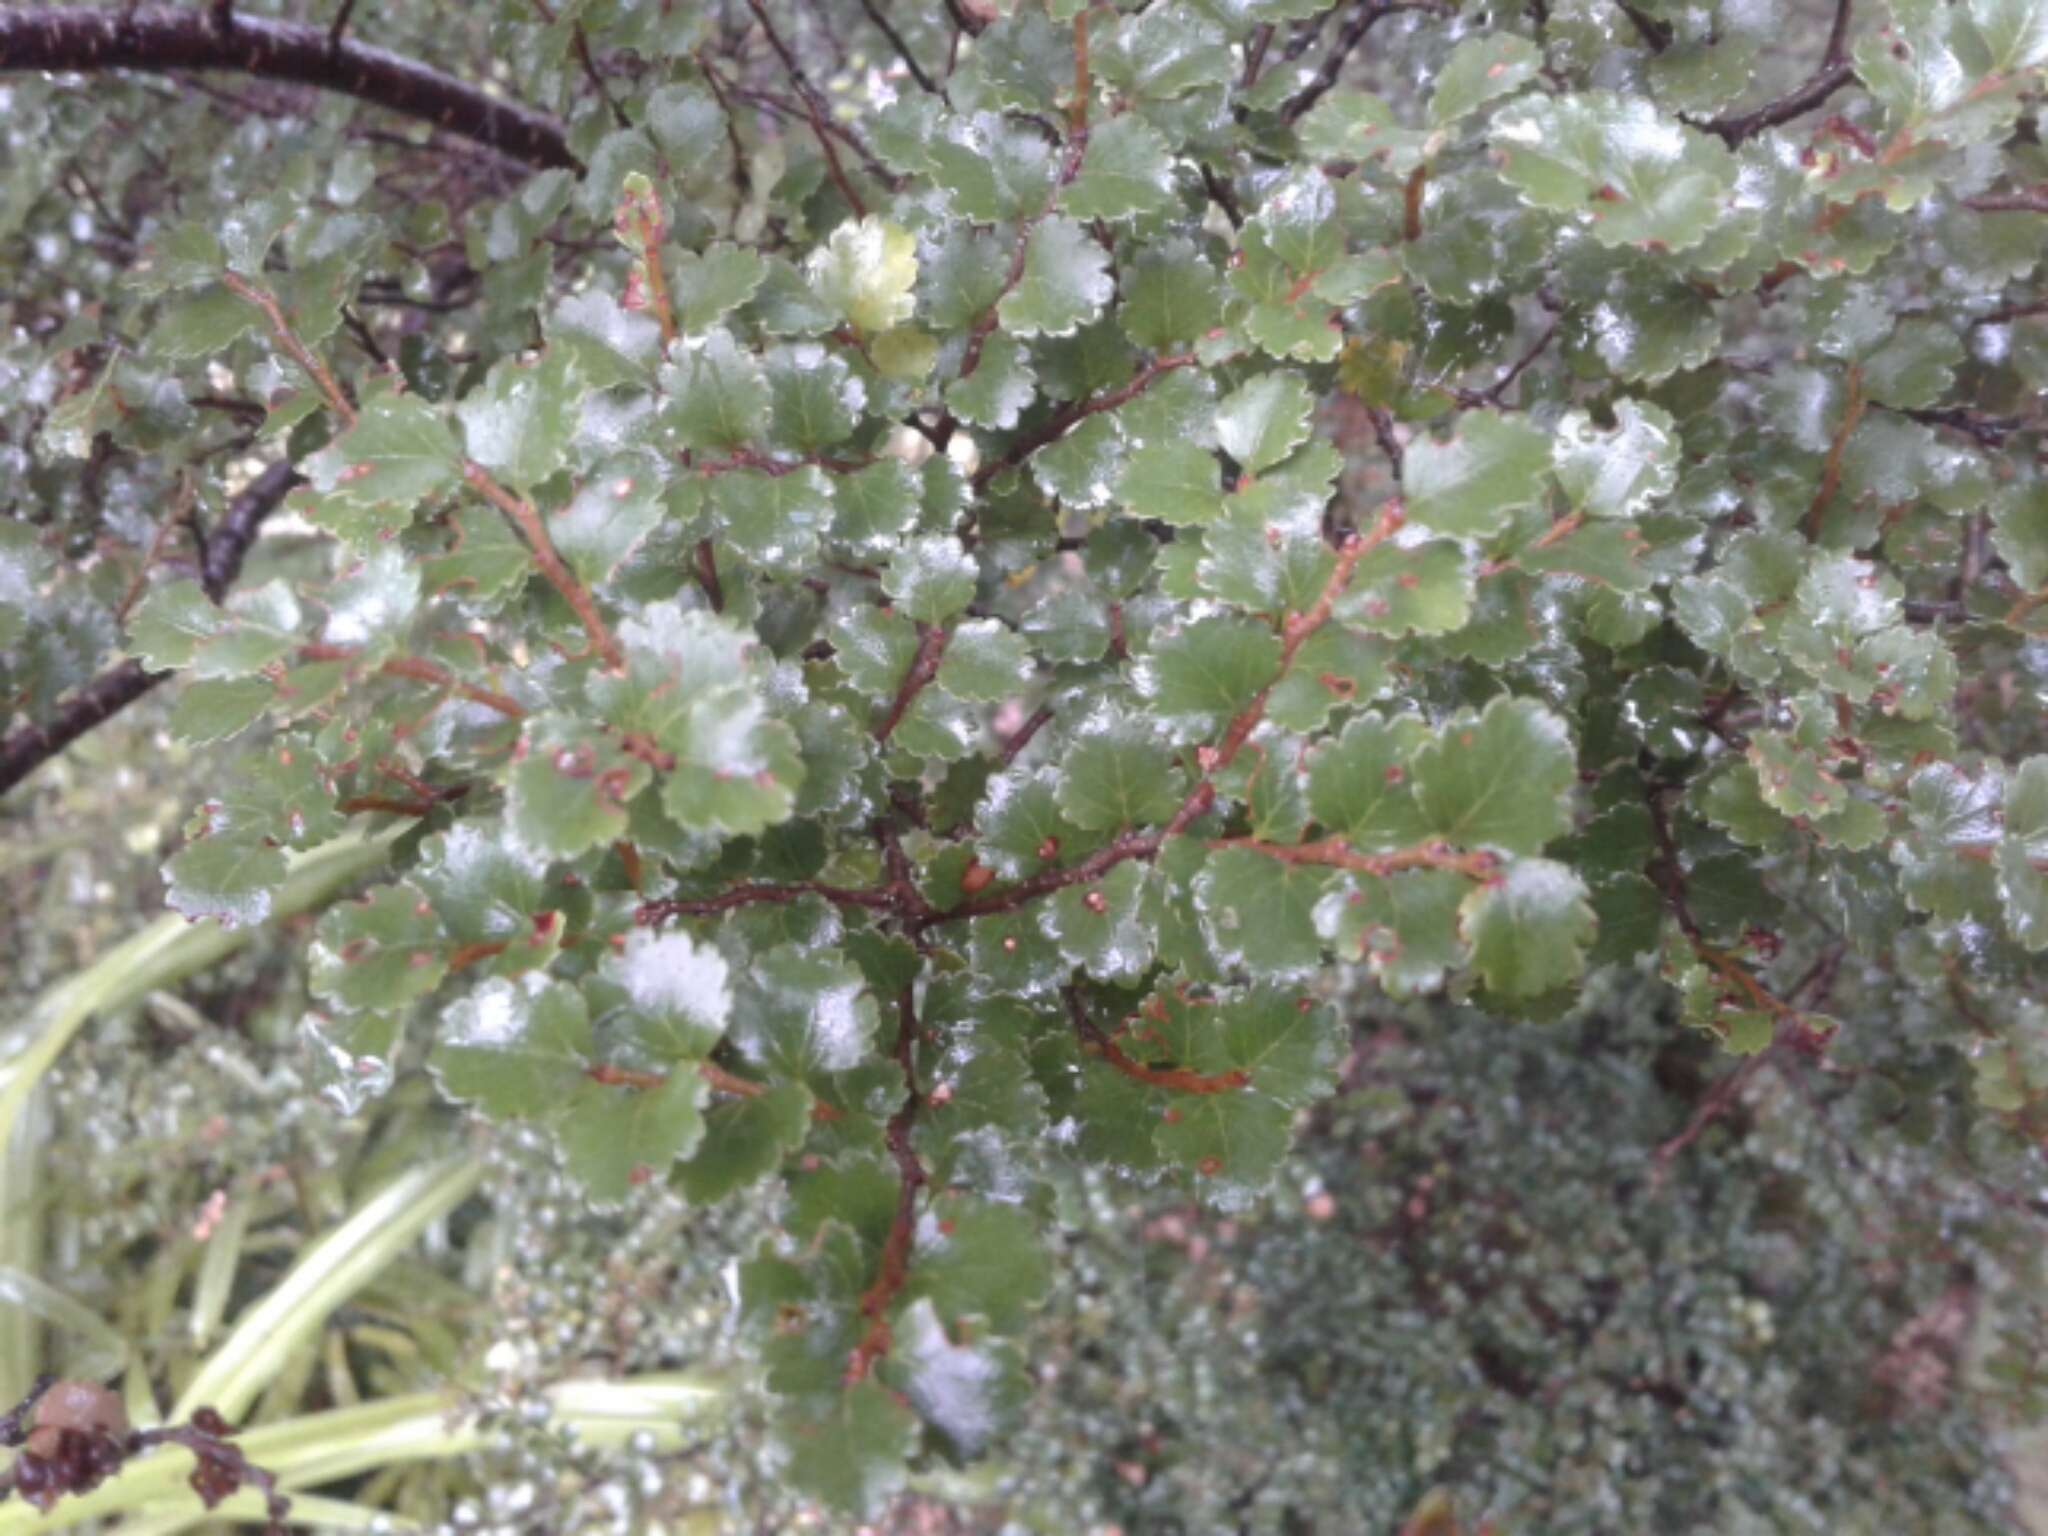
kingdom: Plantae
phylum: Tracheophyta
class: Magnoliopsida
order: Fagales
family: Nothofagaceae
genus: Nothofagus
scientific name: Nothofagus menziesii
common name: Silver beech
